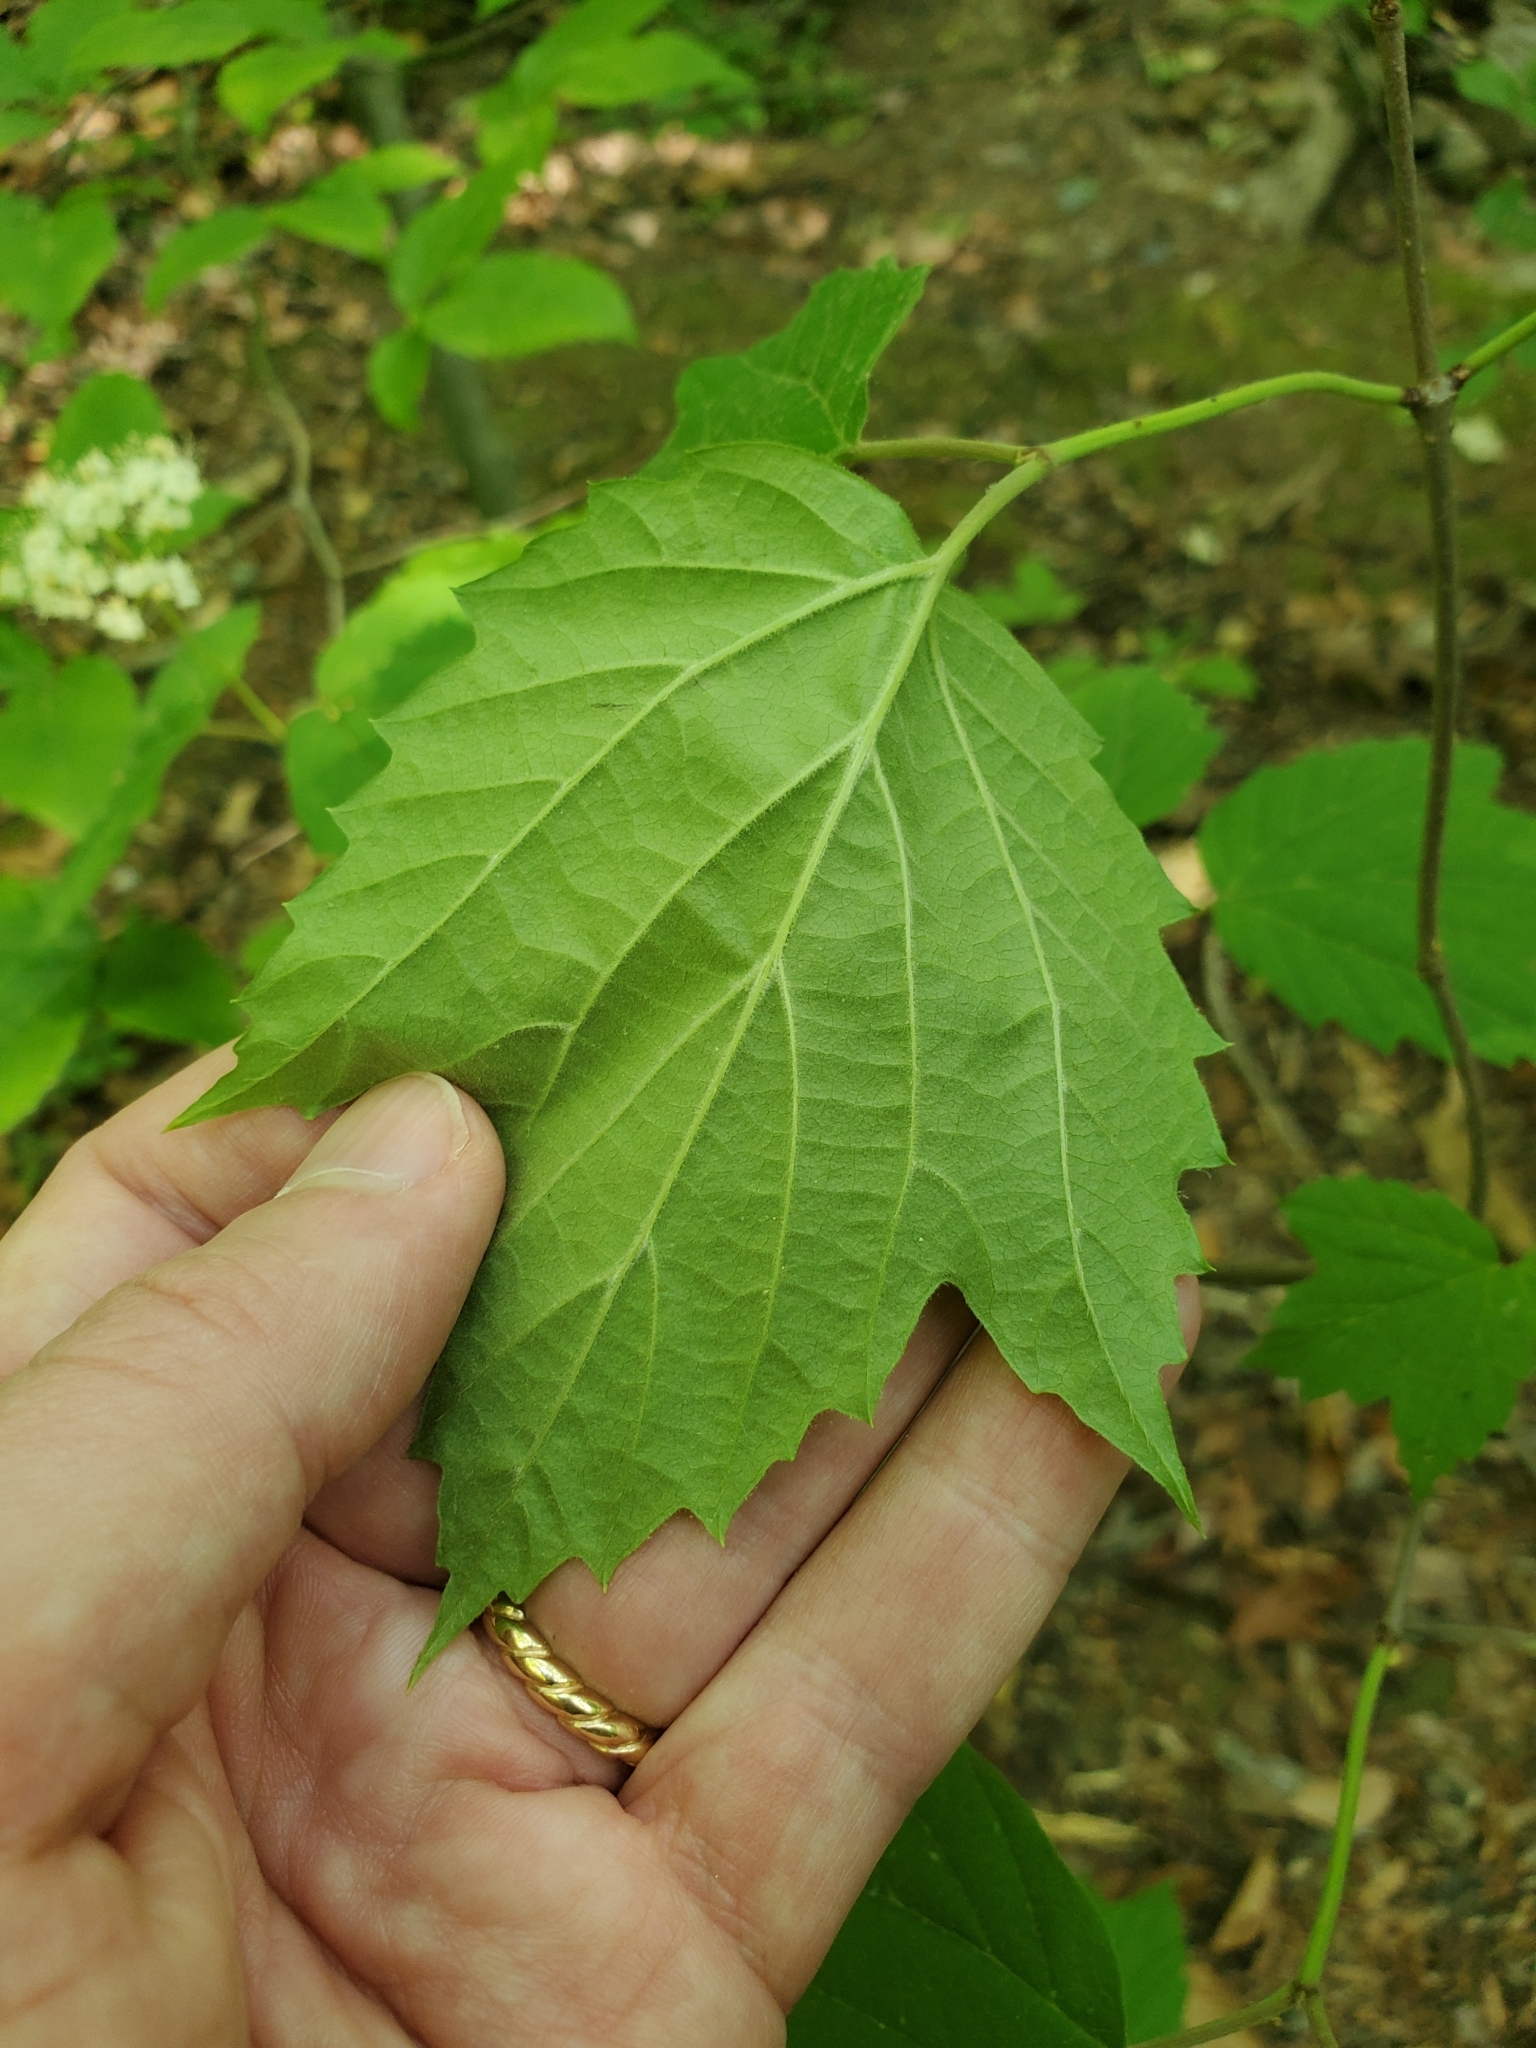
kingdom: Plantae
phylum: Tracheophyta
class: Magnoliopsida
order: Dipsacales
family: Viburnaceae
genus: Viburnum
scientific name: Viburnum acerifolium
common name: Dockmackie
